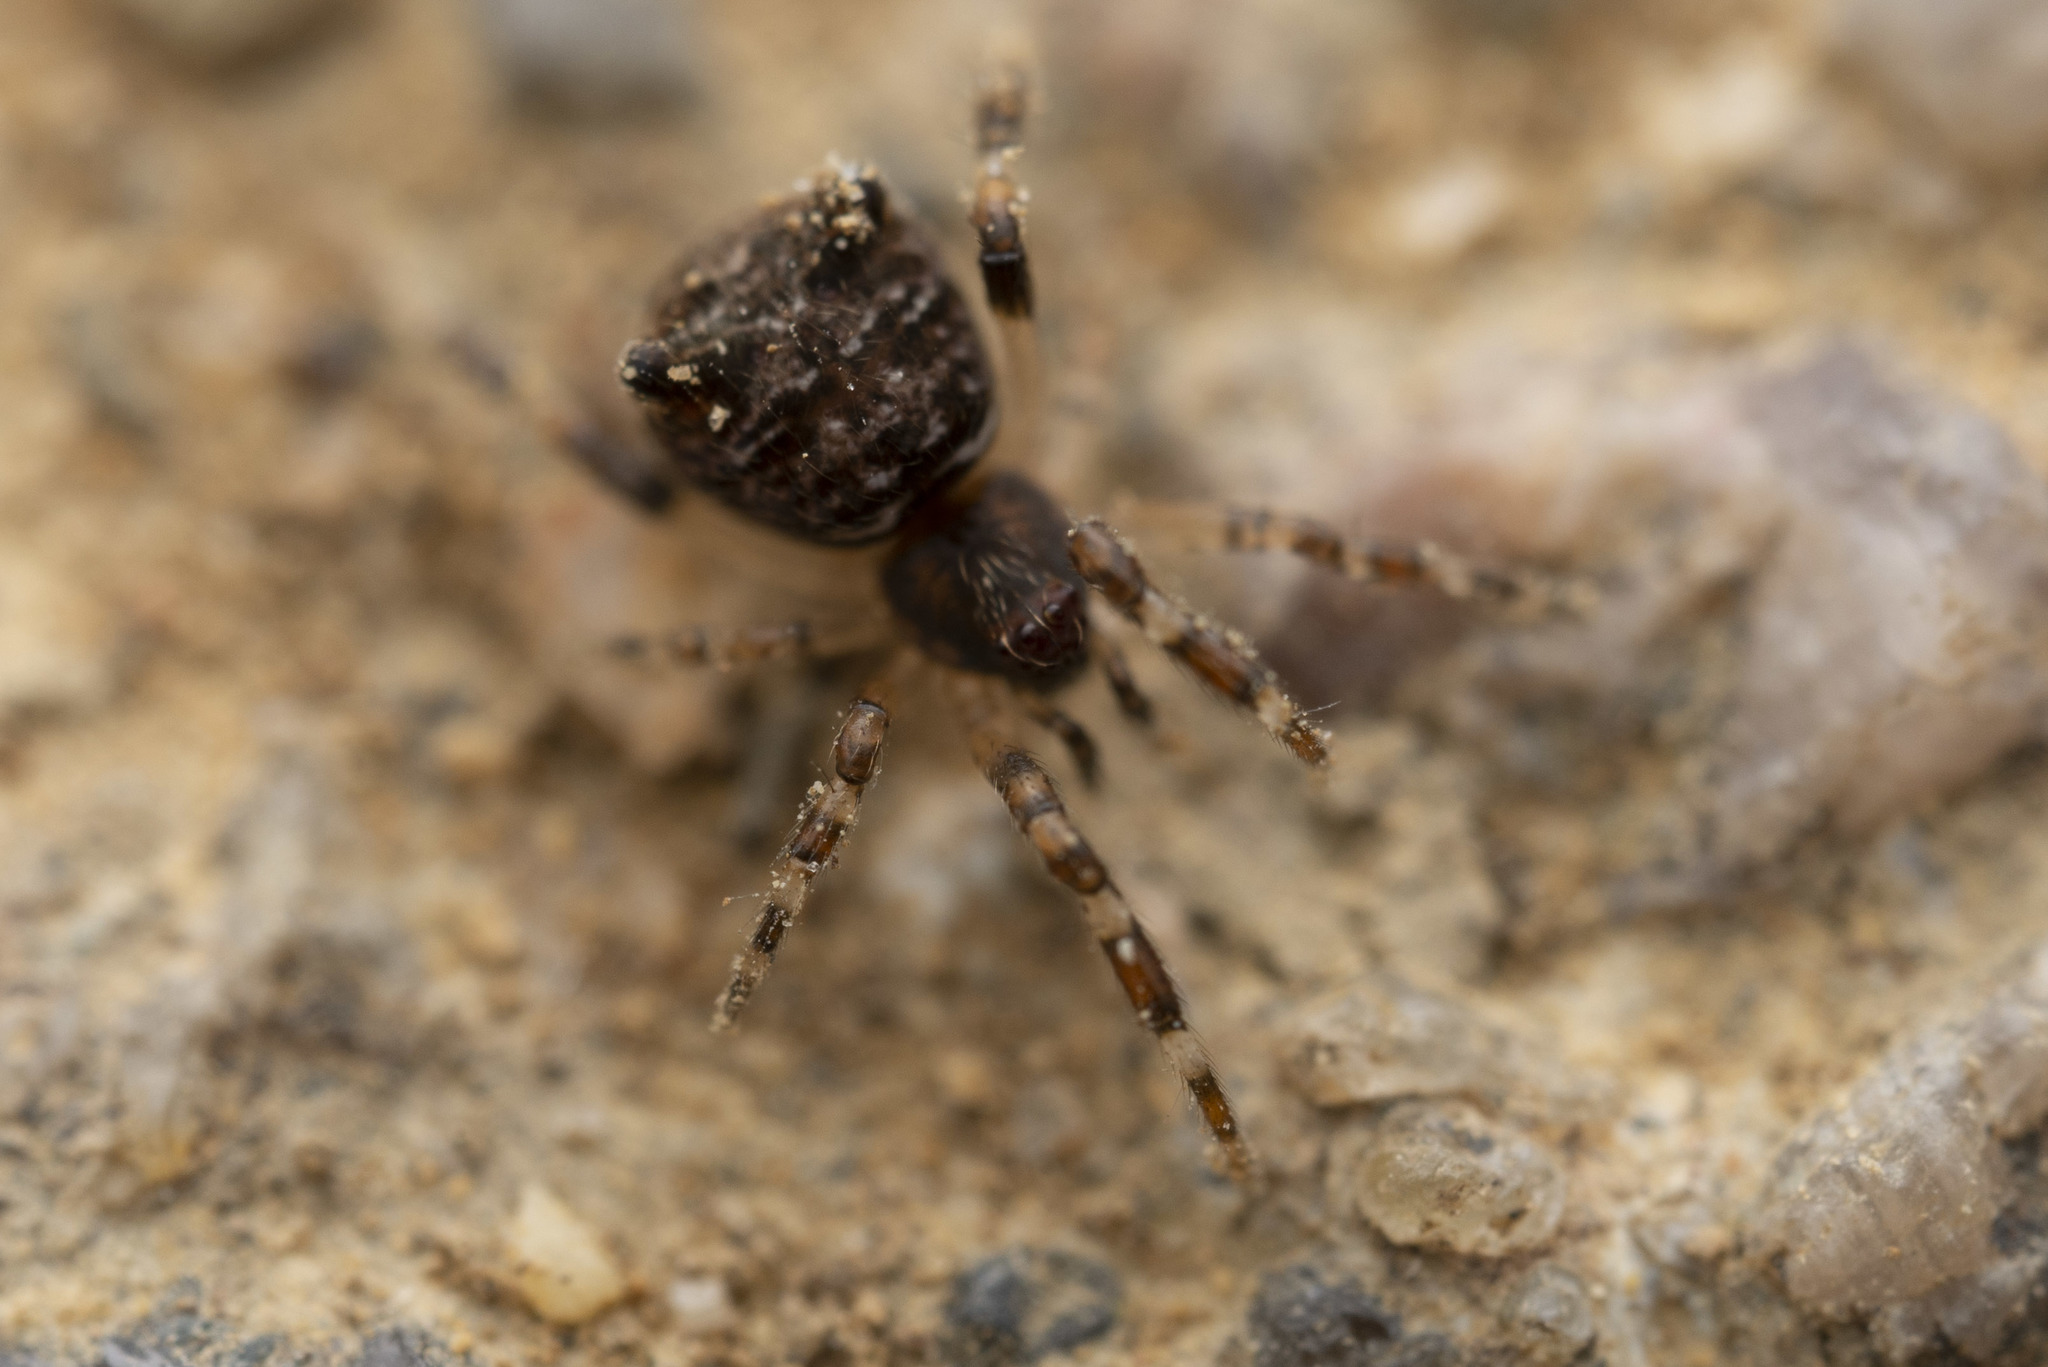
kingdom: Animalia
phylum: Arthropoda
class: Arachnida
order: Araneae
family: Theridiidae
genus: Episinus
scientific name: Episinus nubilus
